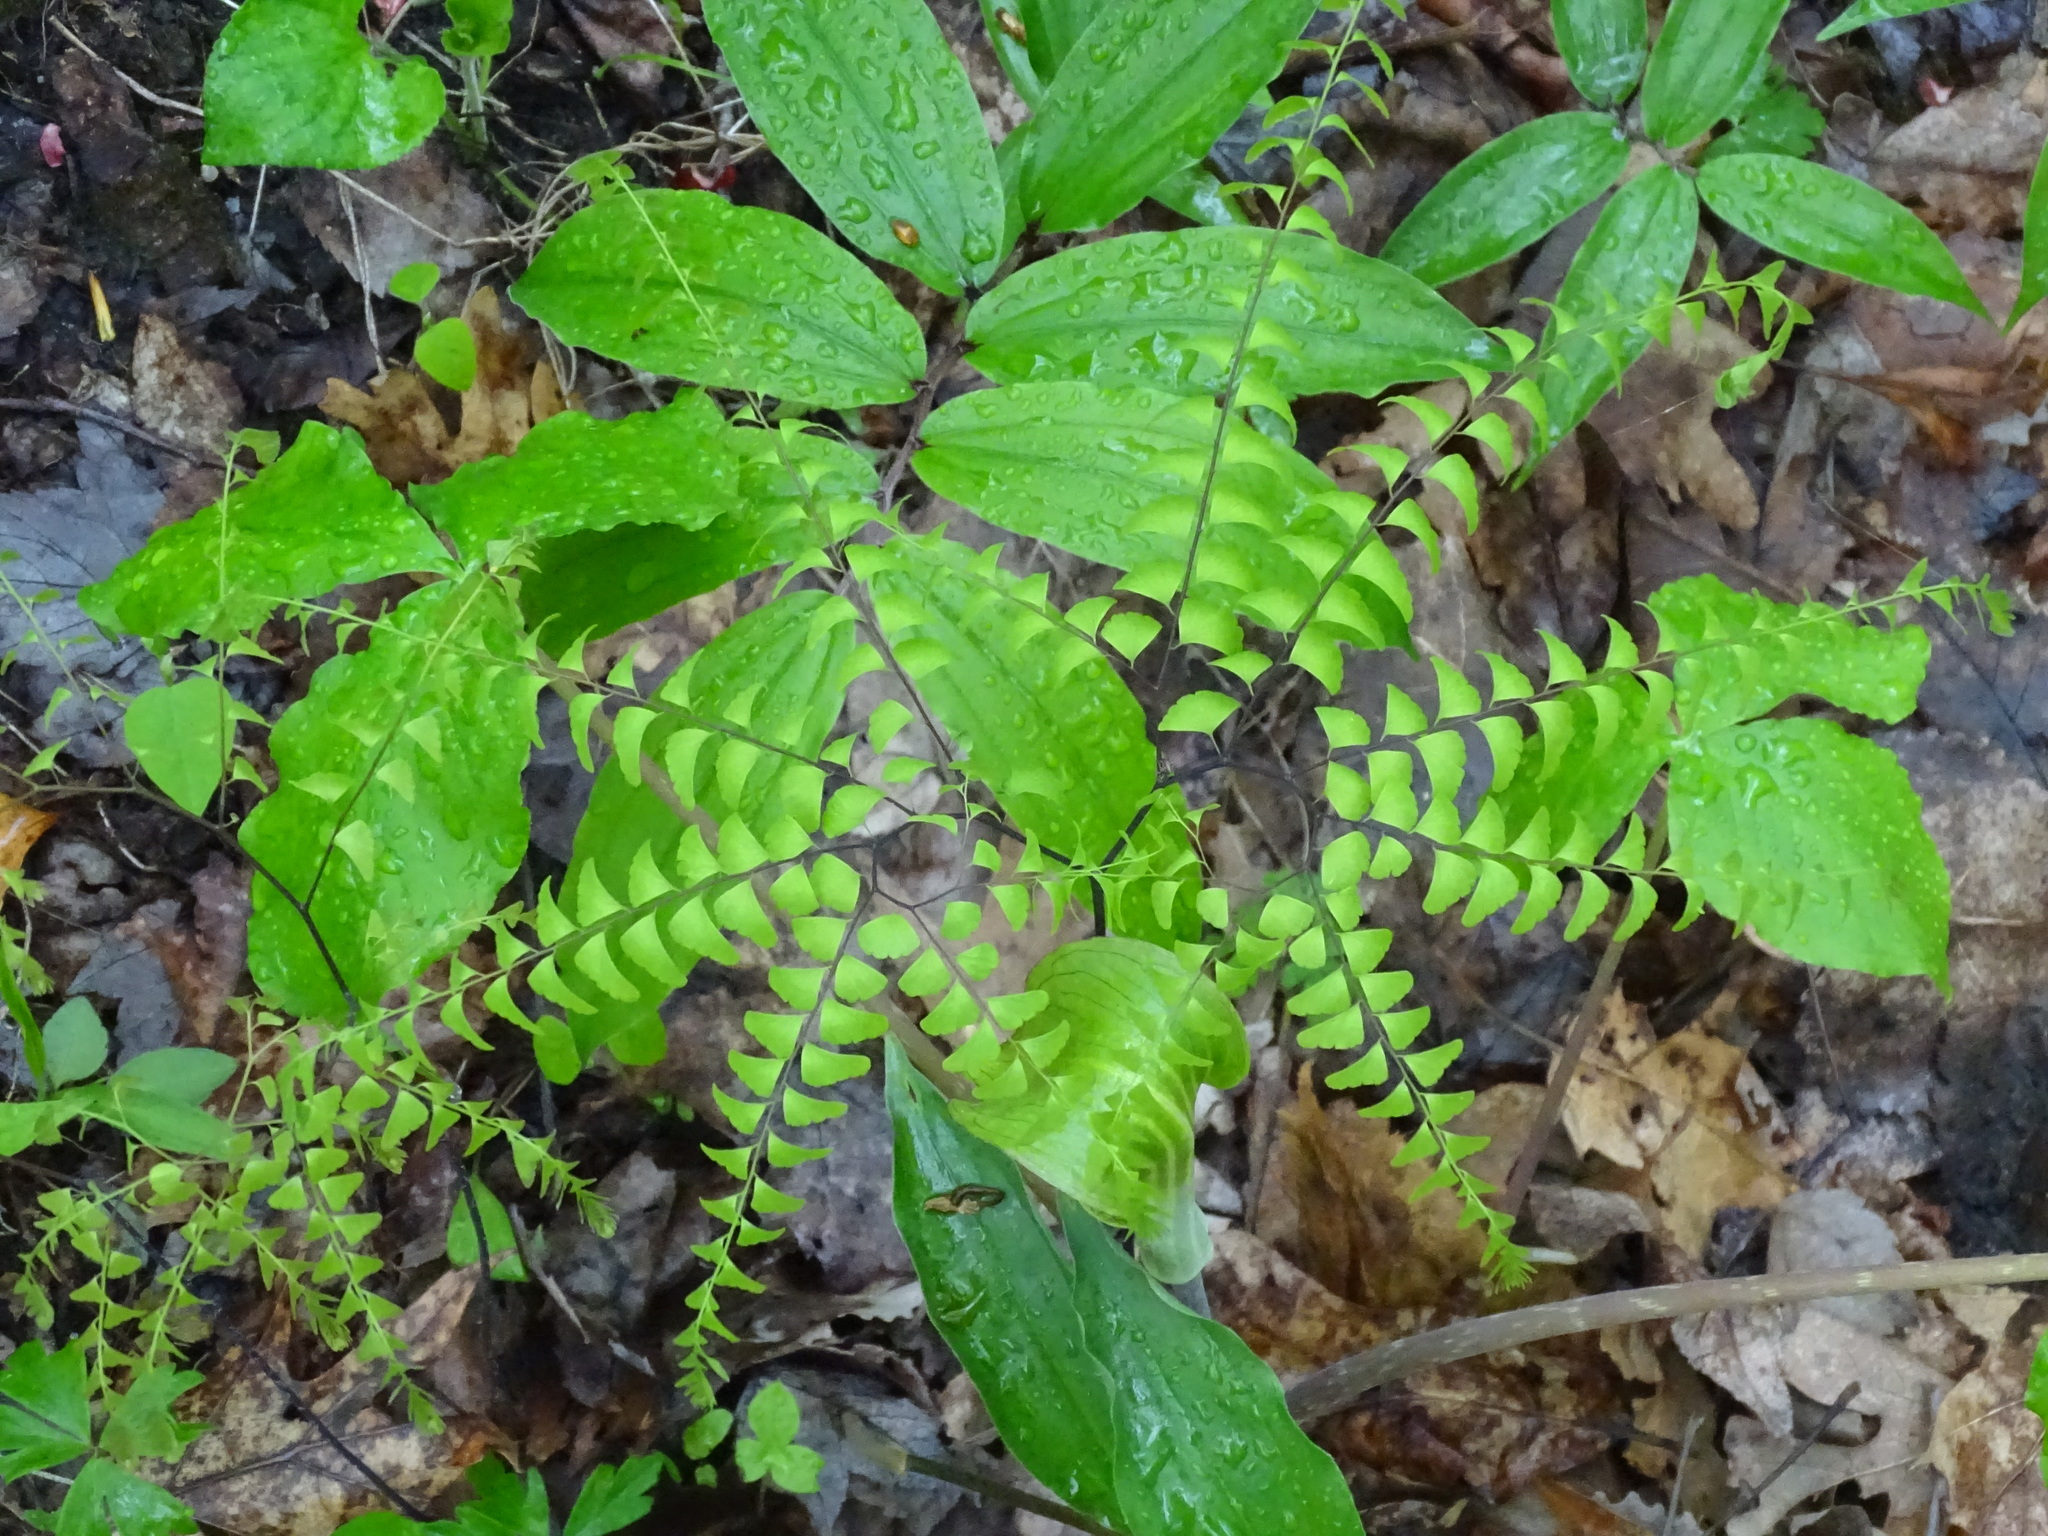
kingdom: Plantae
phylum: Tracheophyta
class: Polypodiopsida
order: Polypodiales
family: Pteridaceae
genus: Adiantum
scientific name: Adiantum pedatum
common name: Five-finger fern
